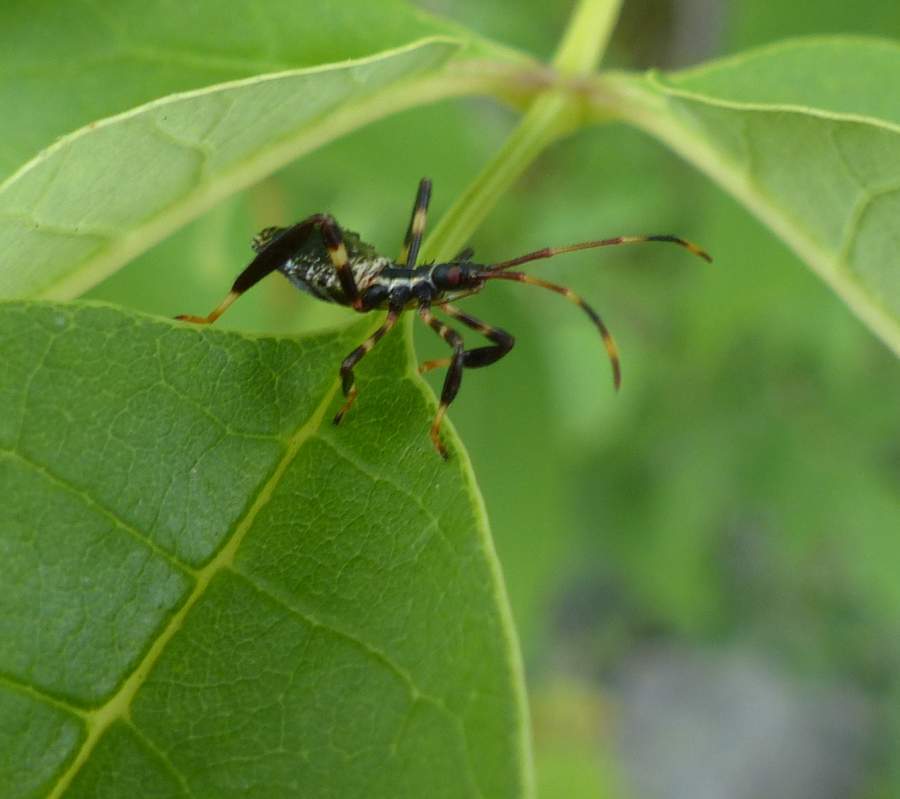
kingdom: Animalia
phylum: Arthropoda
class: Insecta
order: Hemiptera
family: Coreidae
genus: Acanthocephala
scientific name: Acanthocephala terminalis
